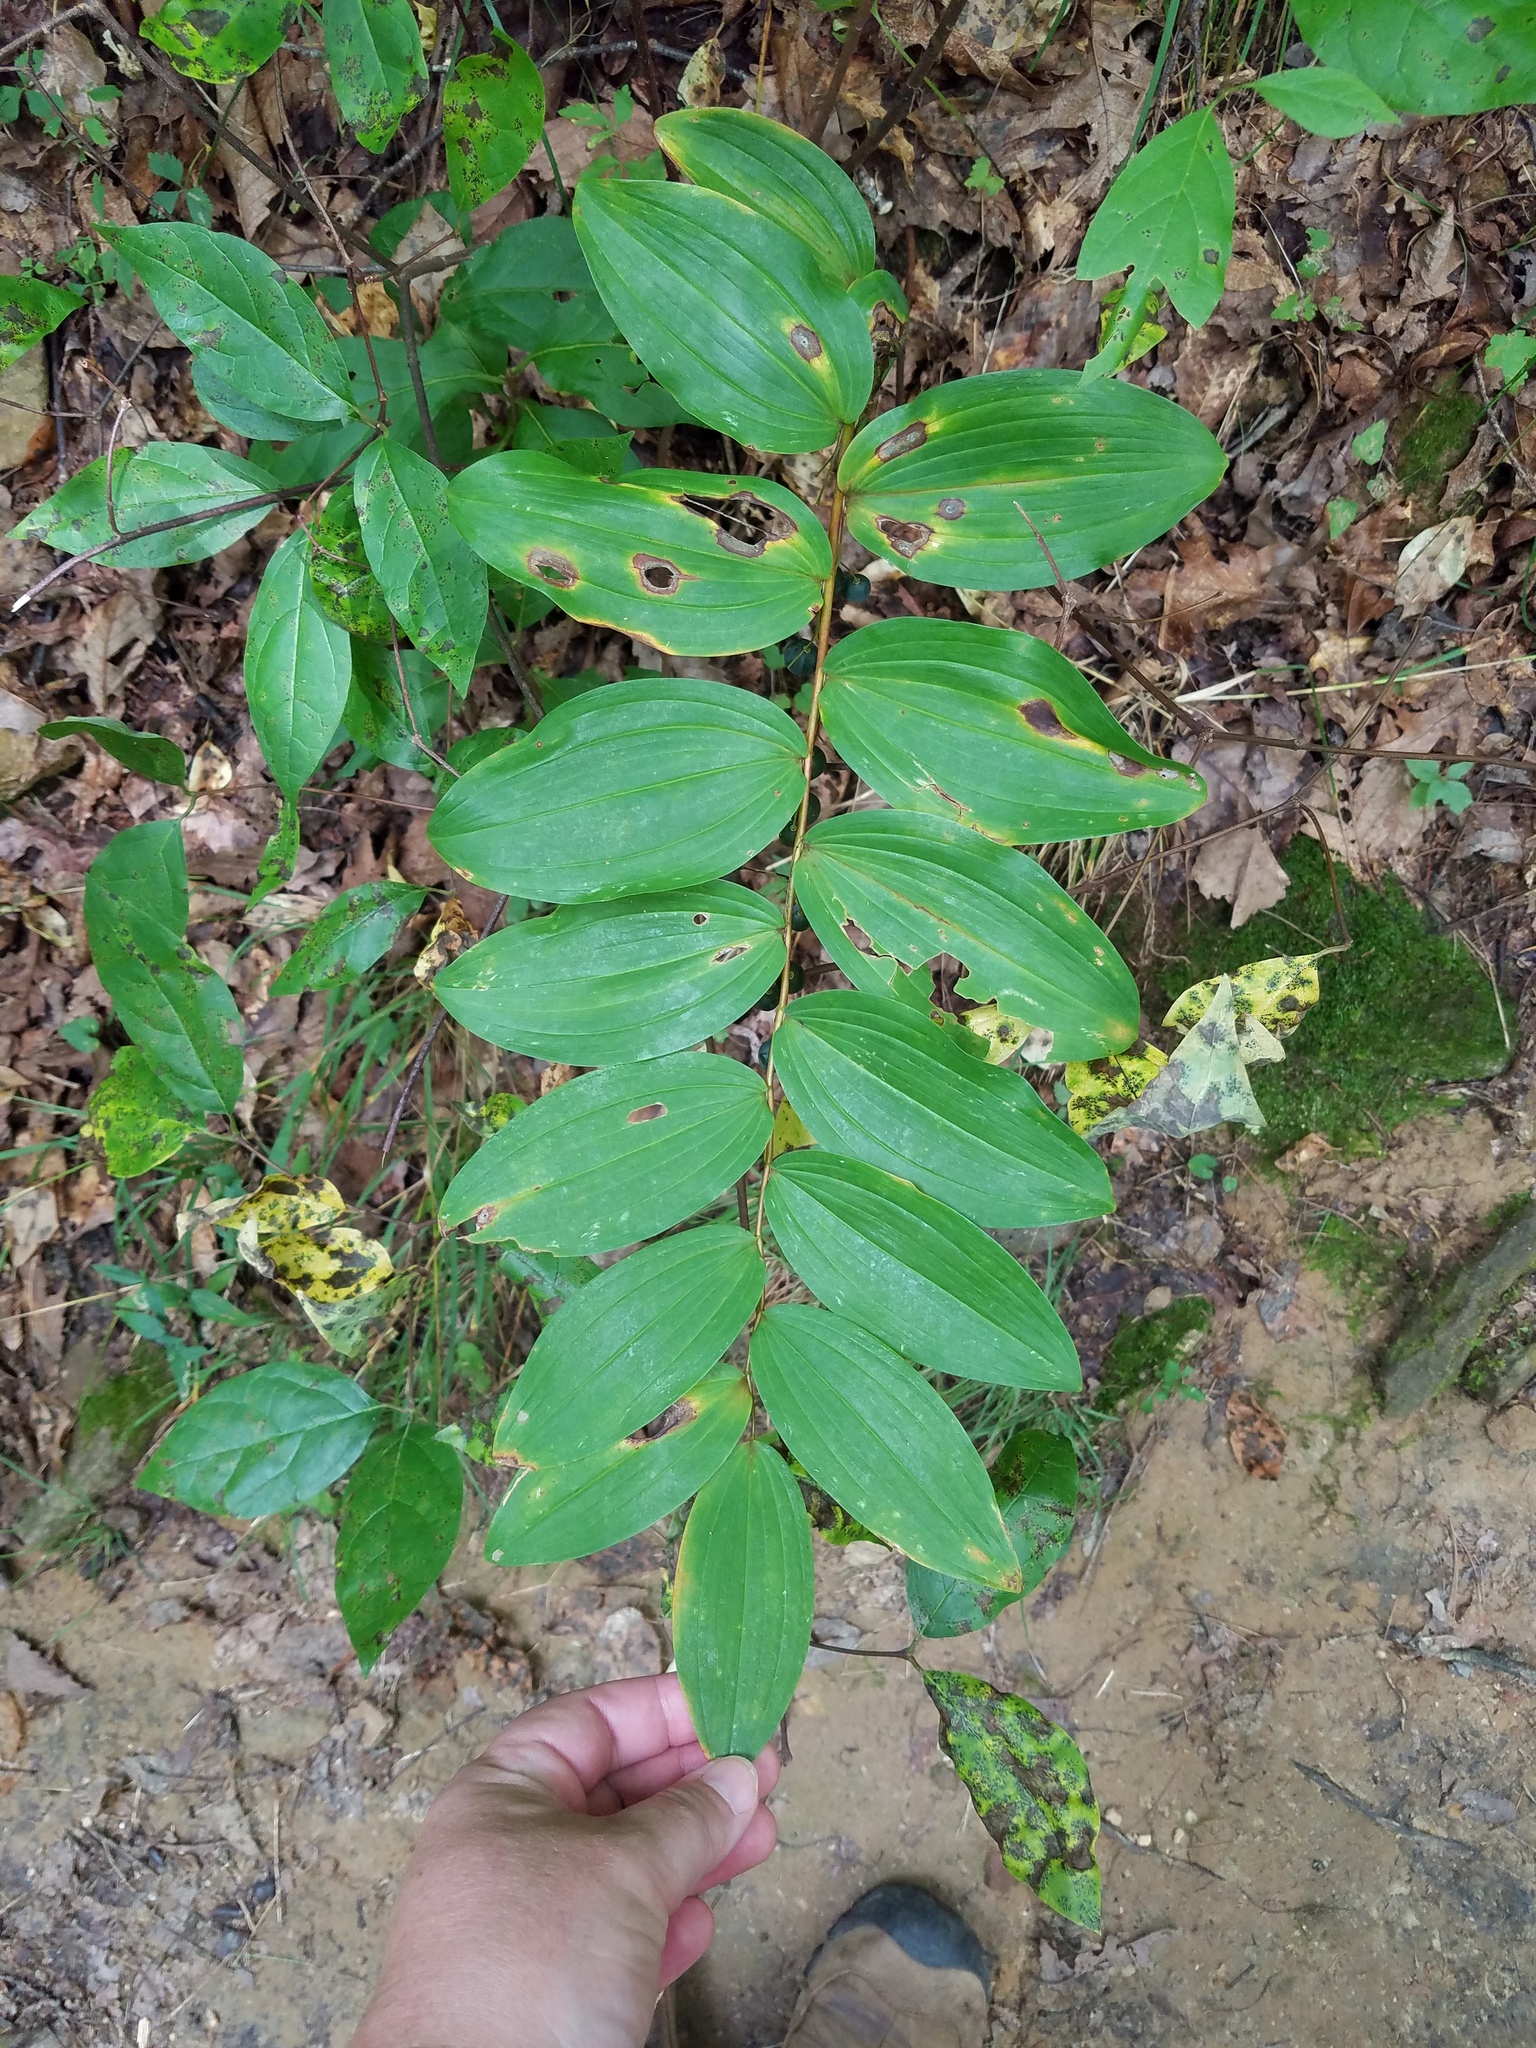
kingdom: Plantae
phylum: Tracheophyta
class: Liliopsida
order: Asparagales
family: Asparagaceae
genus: Polygonatum
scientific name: Polygonatum biflorum
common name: American solomon's-seal
